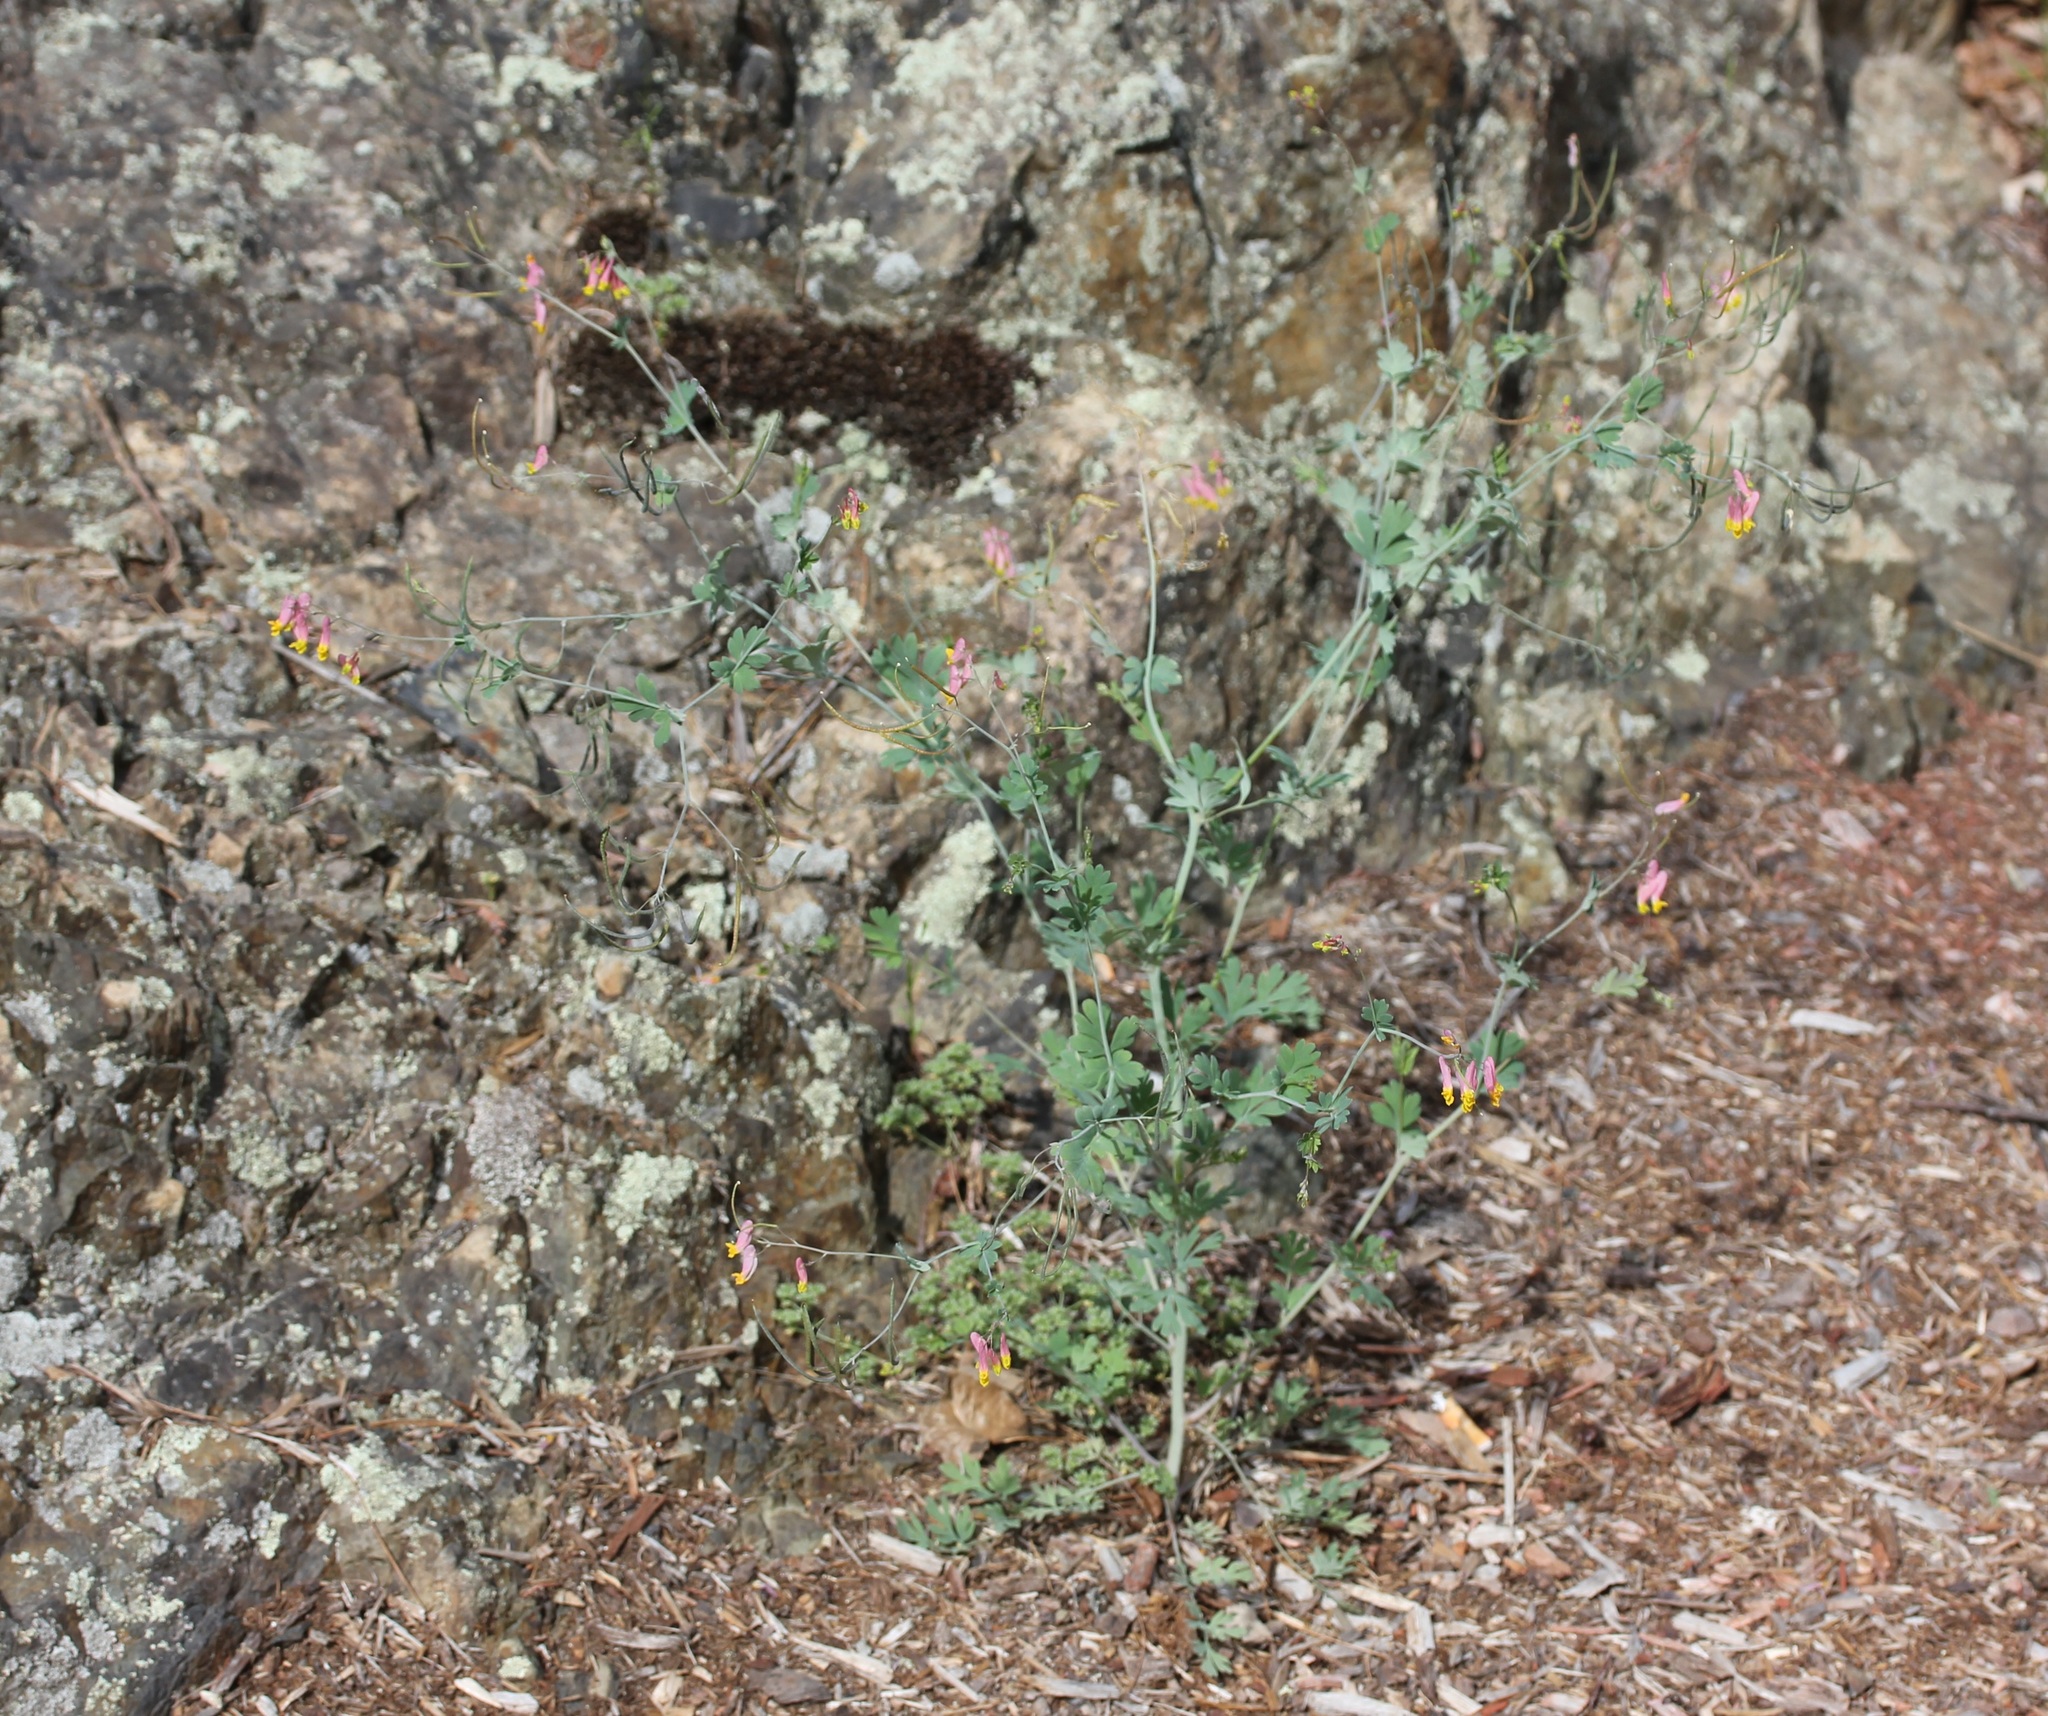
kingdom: Plantae
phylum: Tracheophyta
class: Magnoliopsida
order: Ranunculales
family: Papaveraceae
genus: Capnoides
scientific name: Capnoides sempervirens
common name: Rock harlequin
